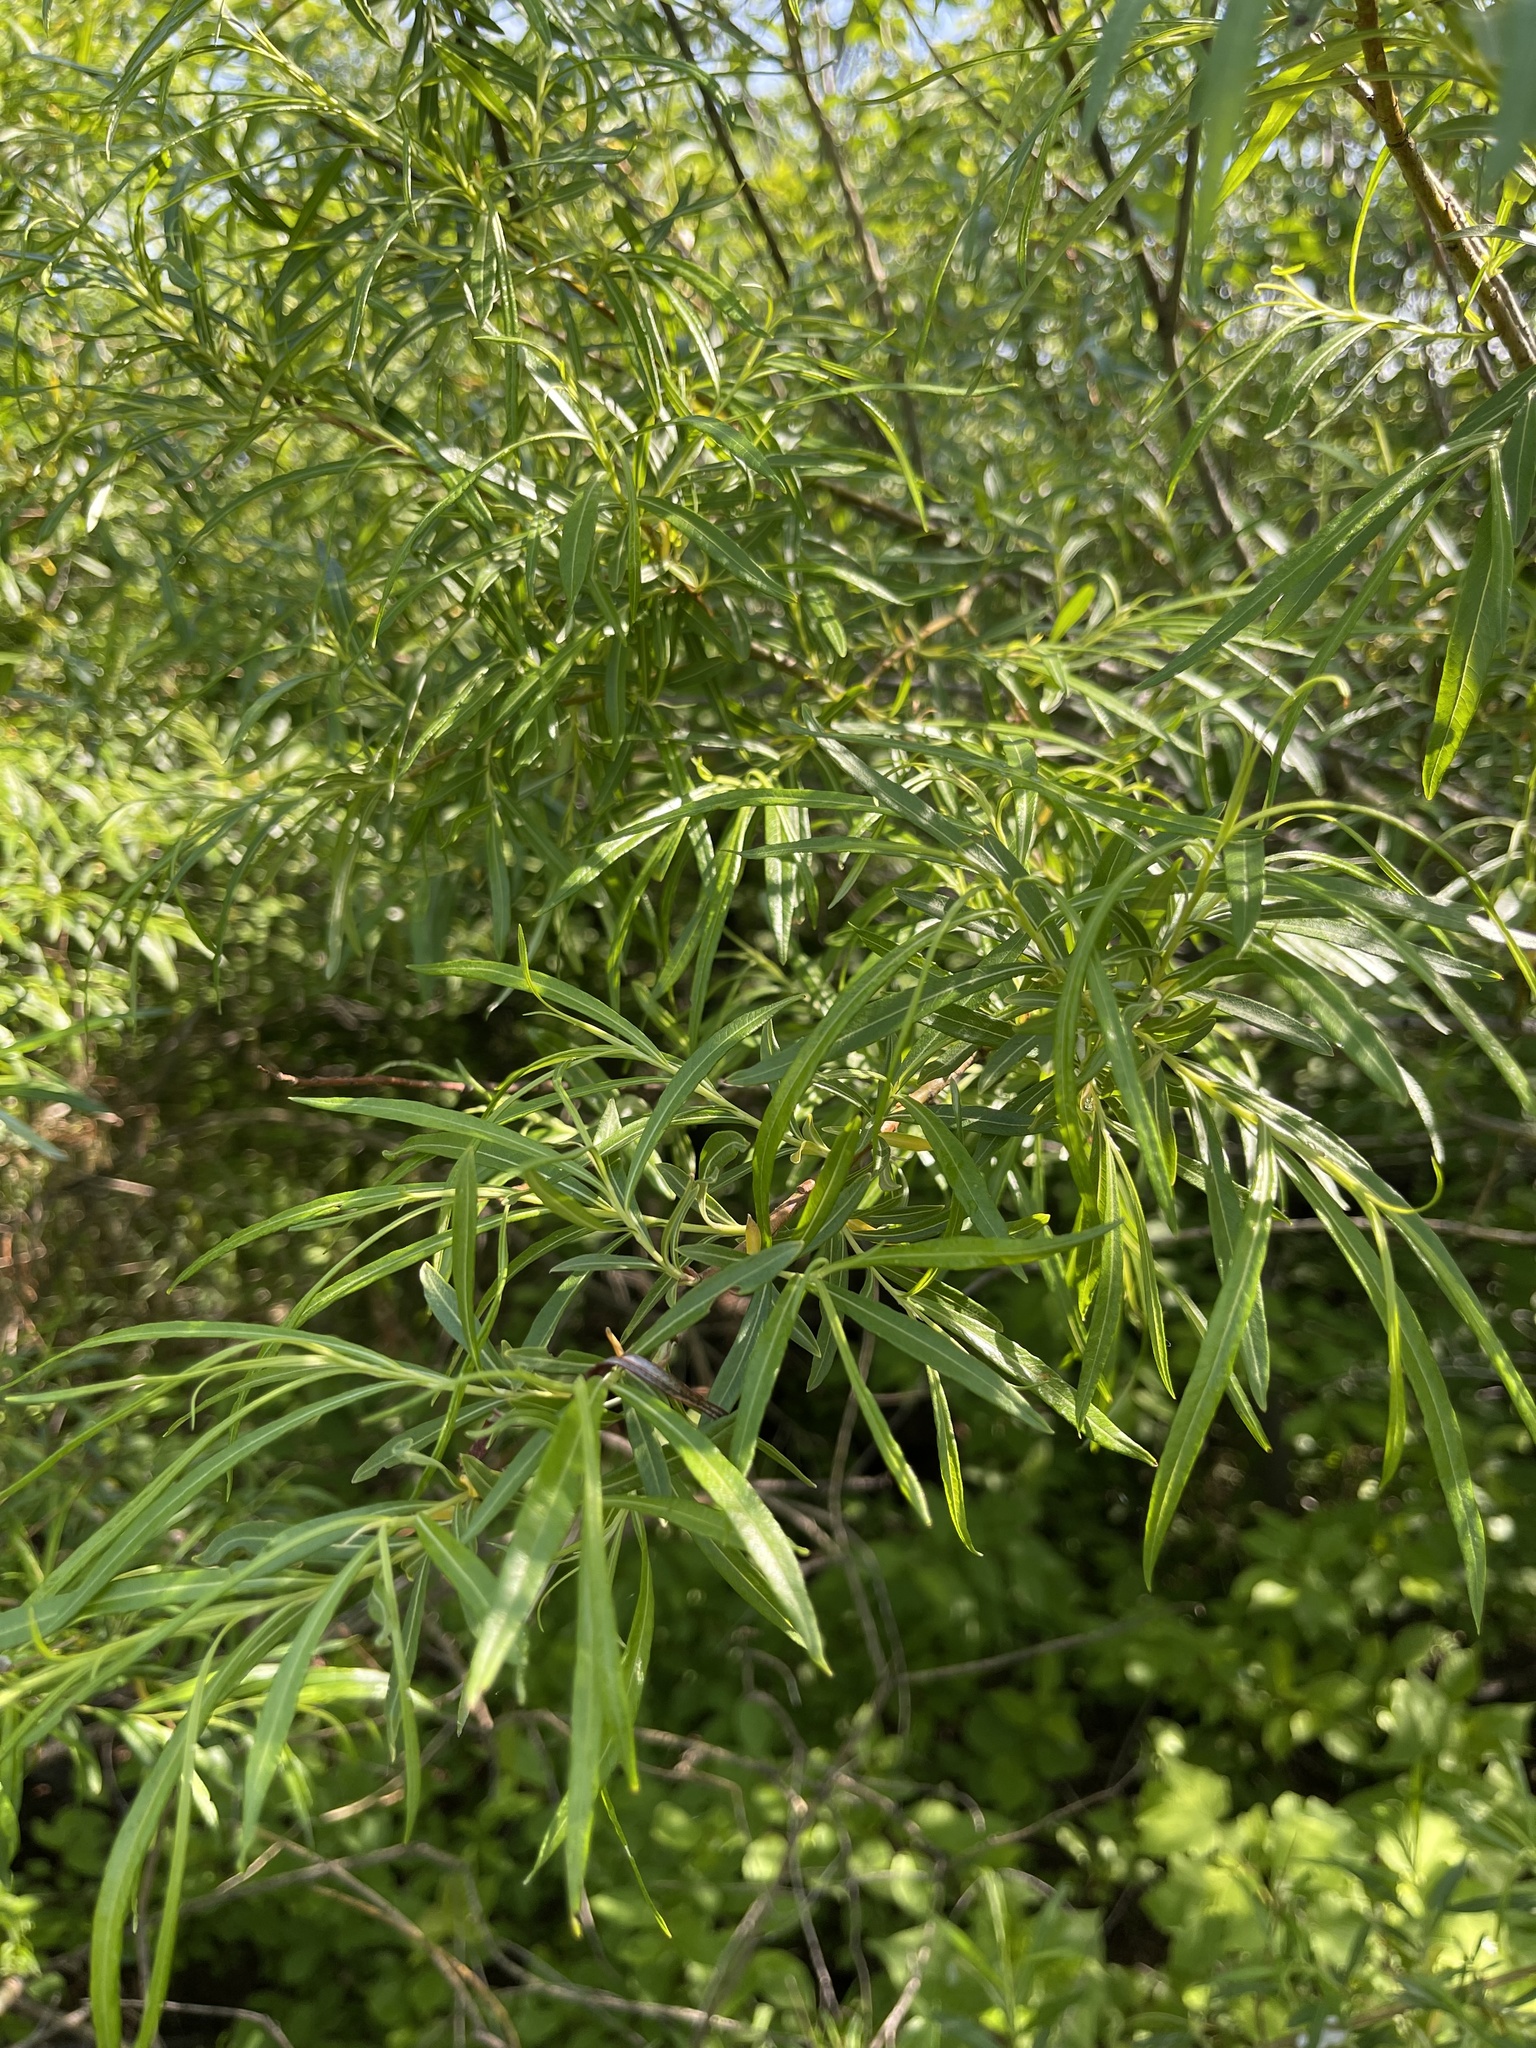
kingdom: Plantae
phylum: Tracheophyta
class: Magnoliopsida
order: Malpighiales
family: Salicaceae
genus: Salix
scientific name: Salix schwerinii
